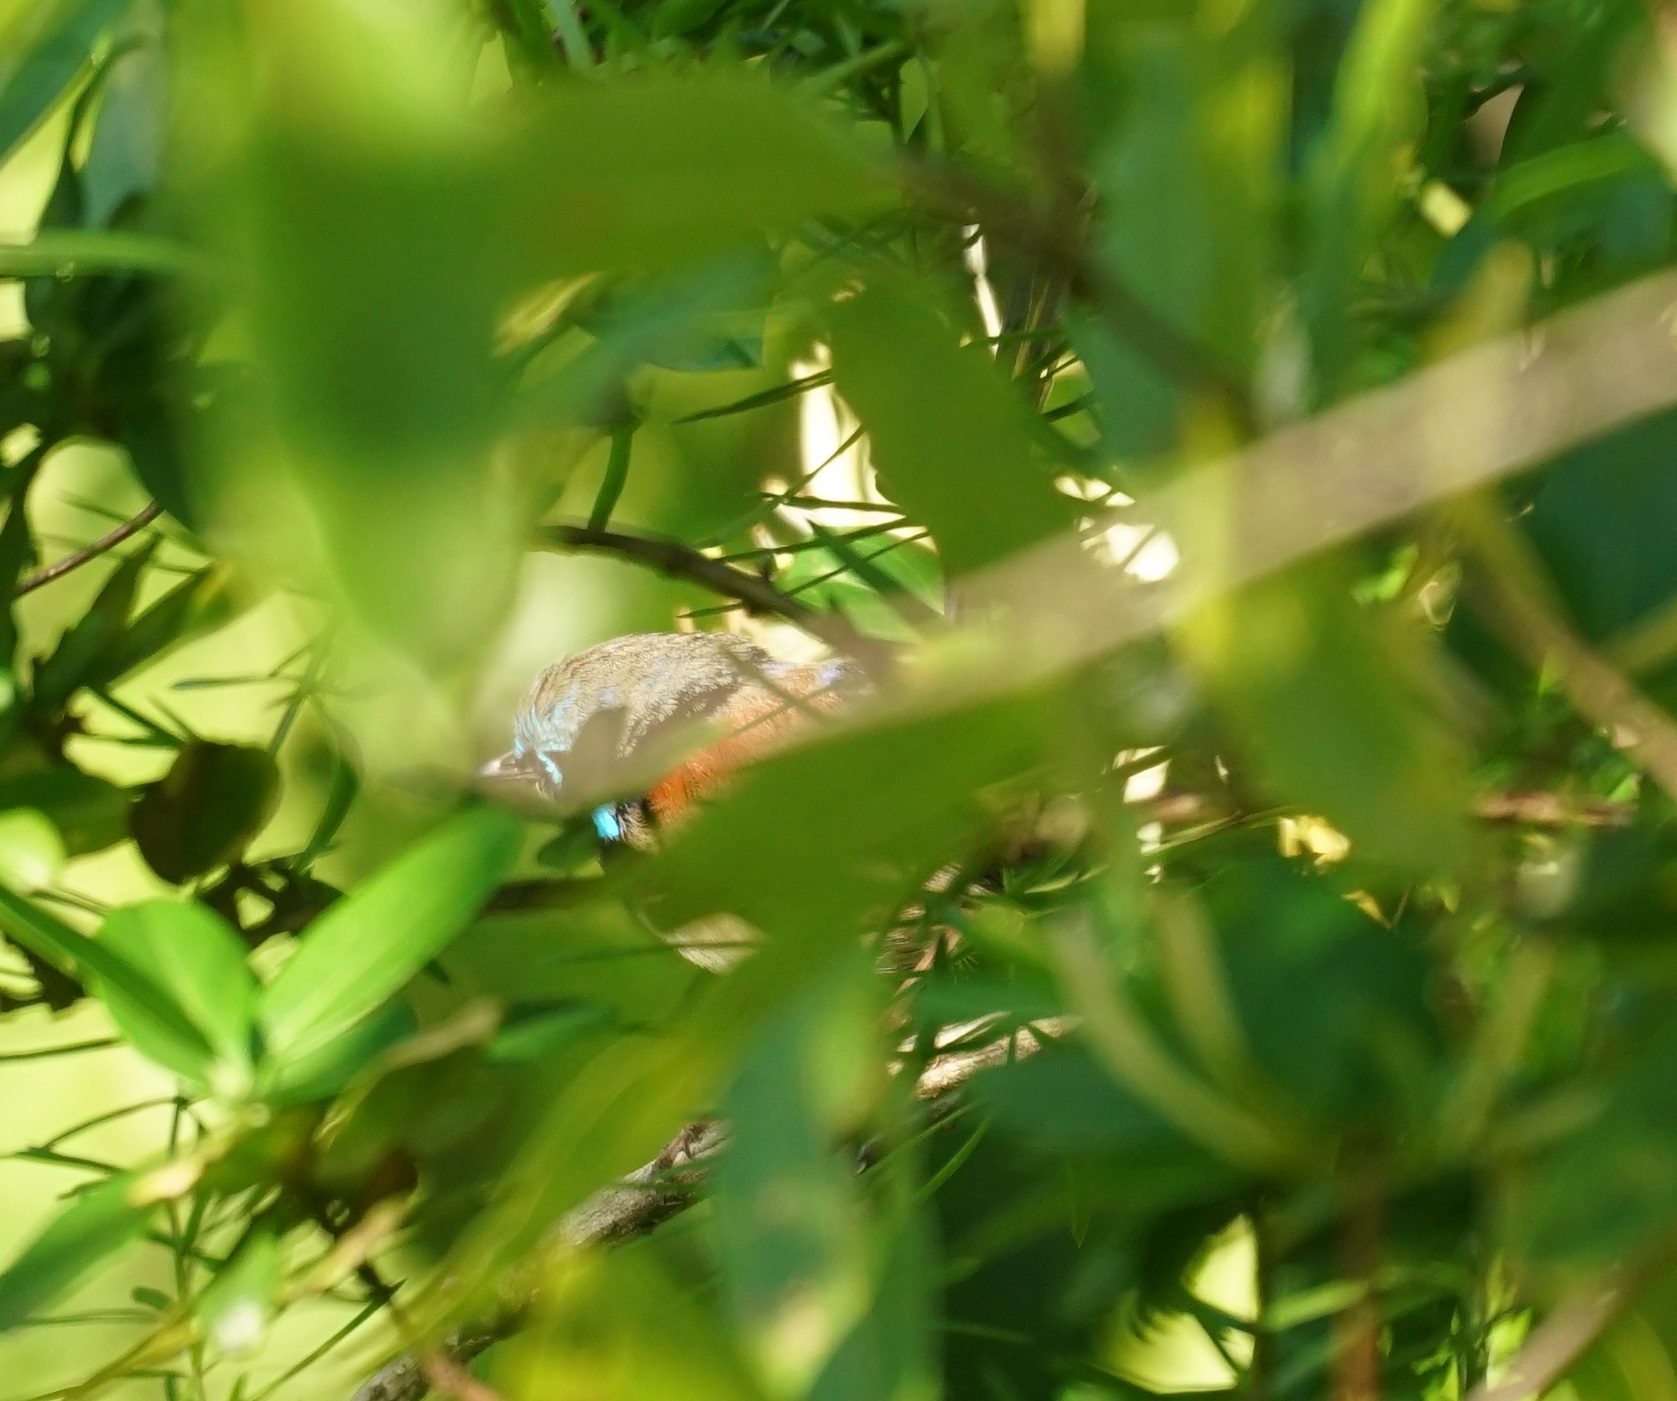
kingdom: Animalia
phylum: Chordata
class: Aves
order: Passeriformes
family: Maluridae
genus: Malurus
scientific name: Malurus lamberti
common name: Variegated fairywren
